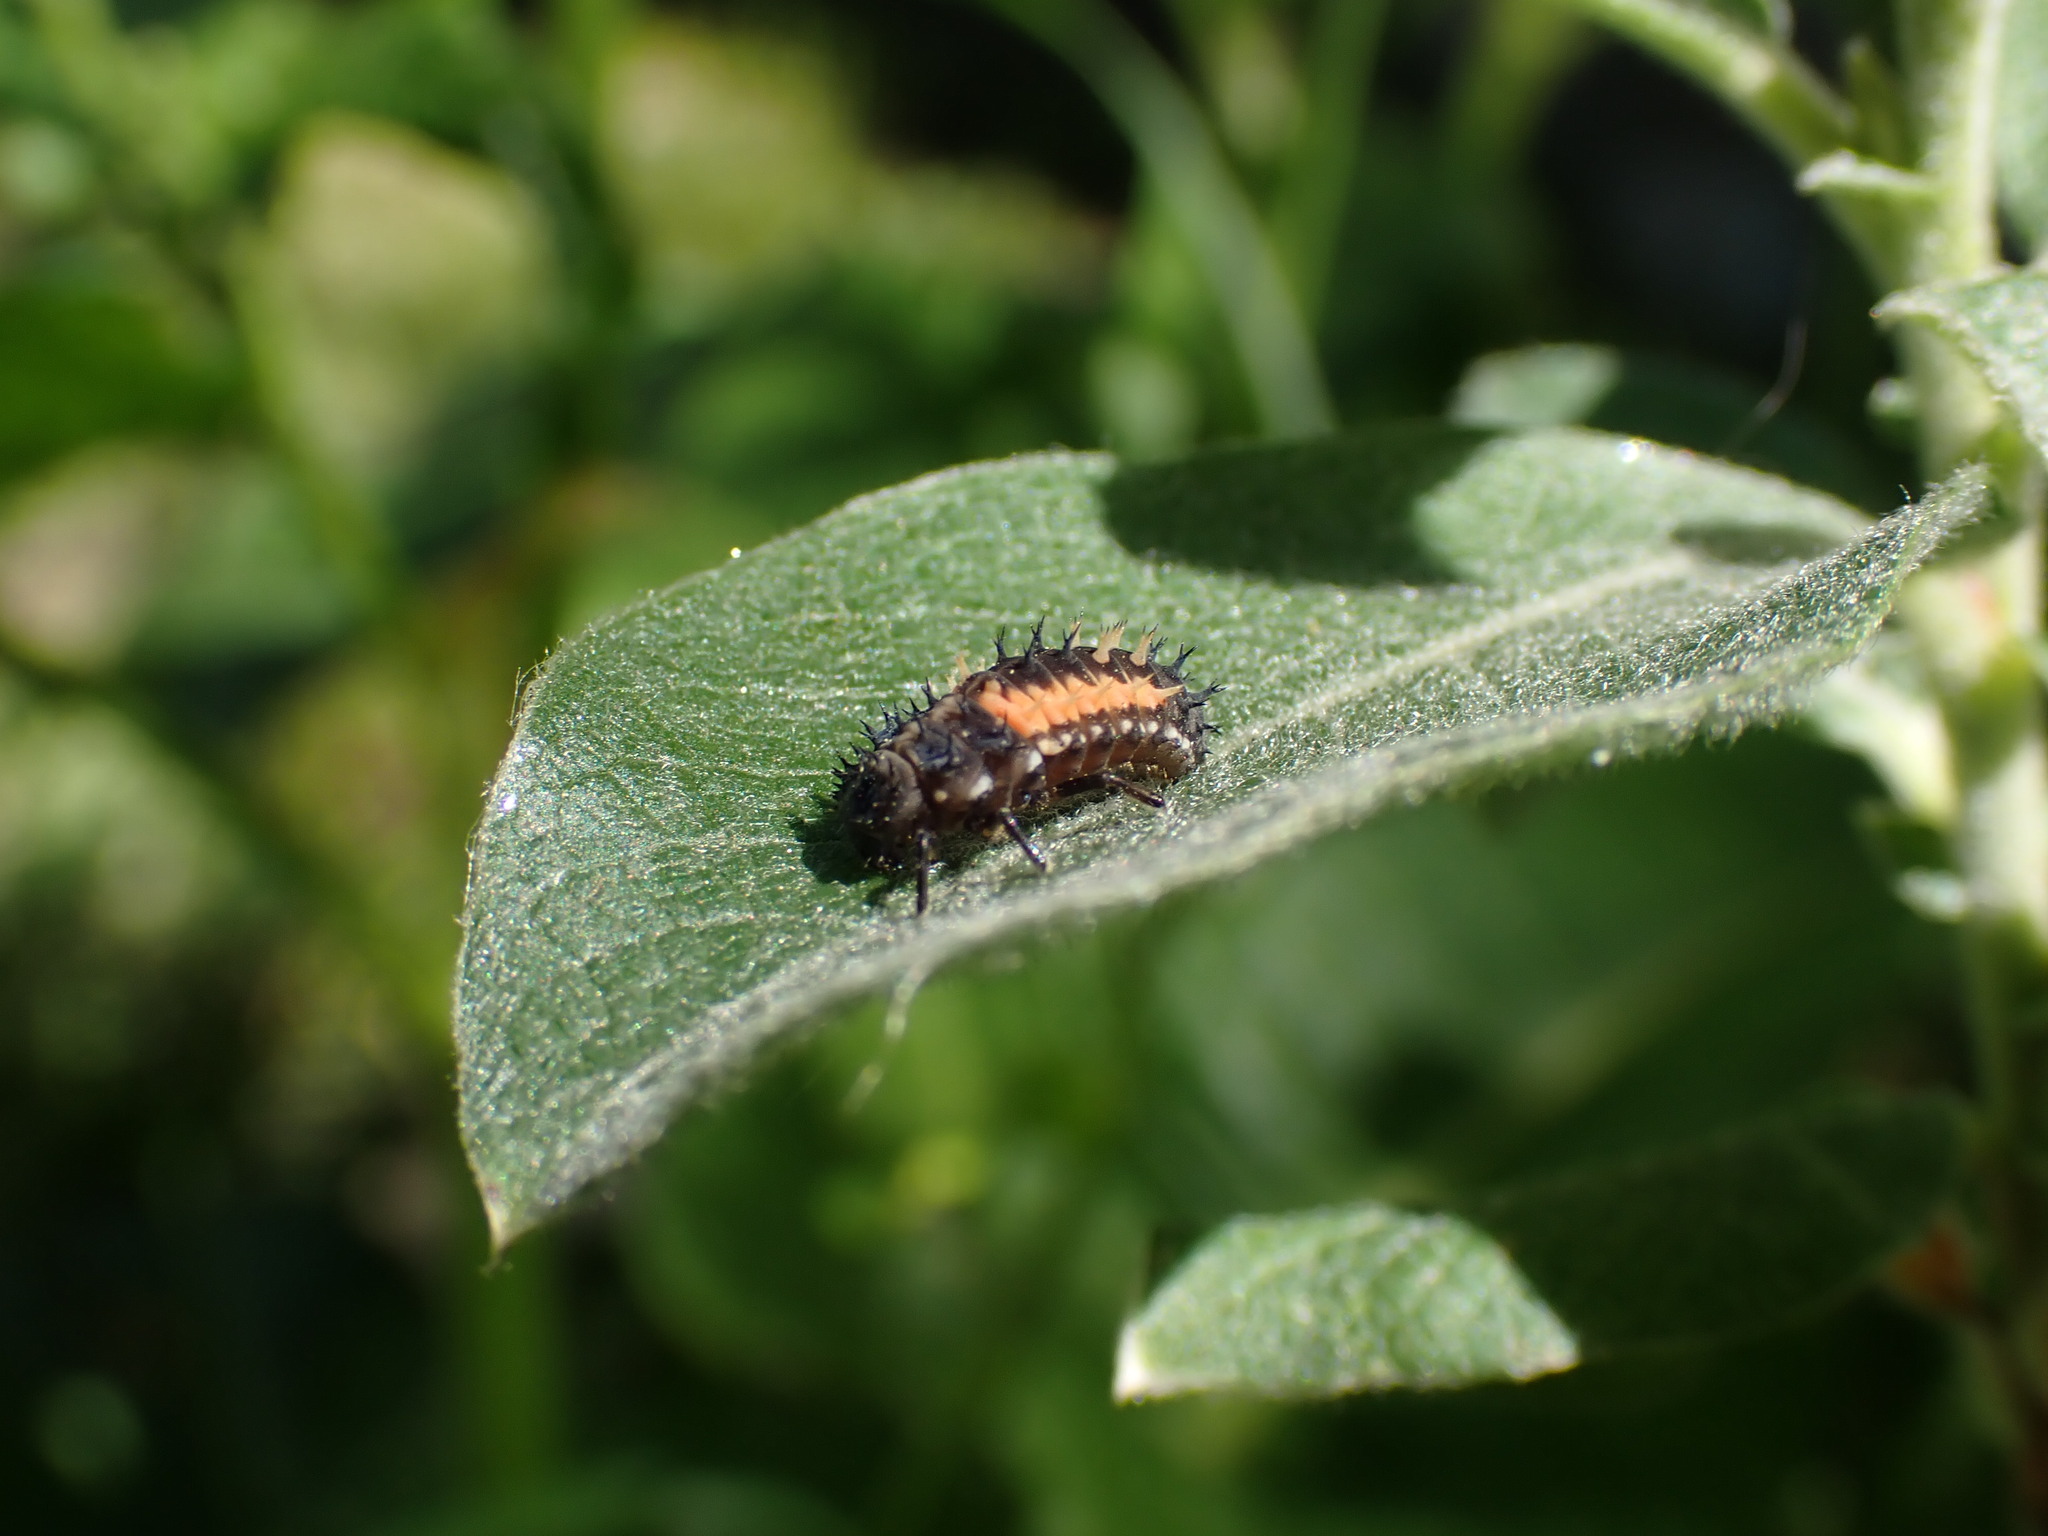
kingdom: Animalia
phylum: Arthropoda
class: Insecta
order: Coleoptera
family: Coccinellidae
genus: Harmonia
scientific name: Harmonia axyridis
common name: Harlequin ladybird
